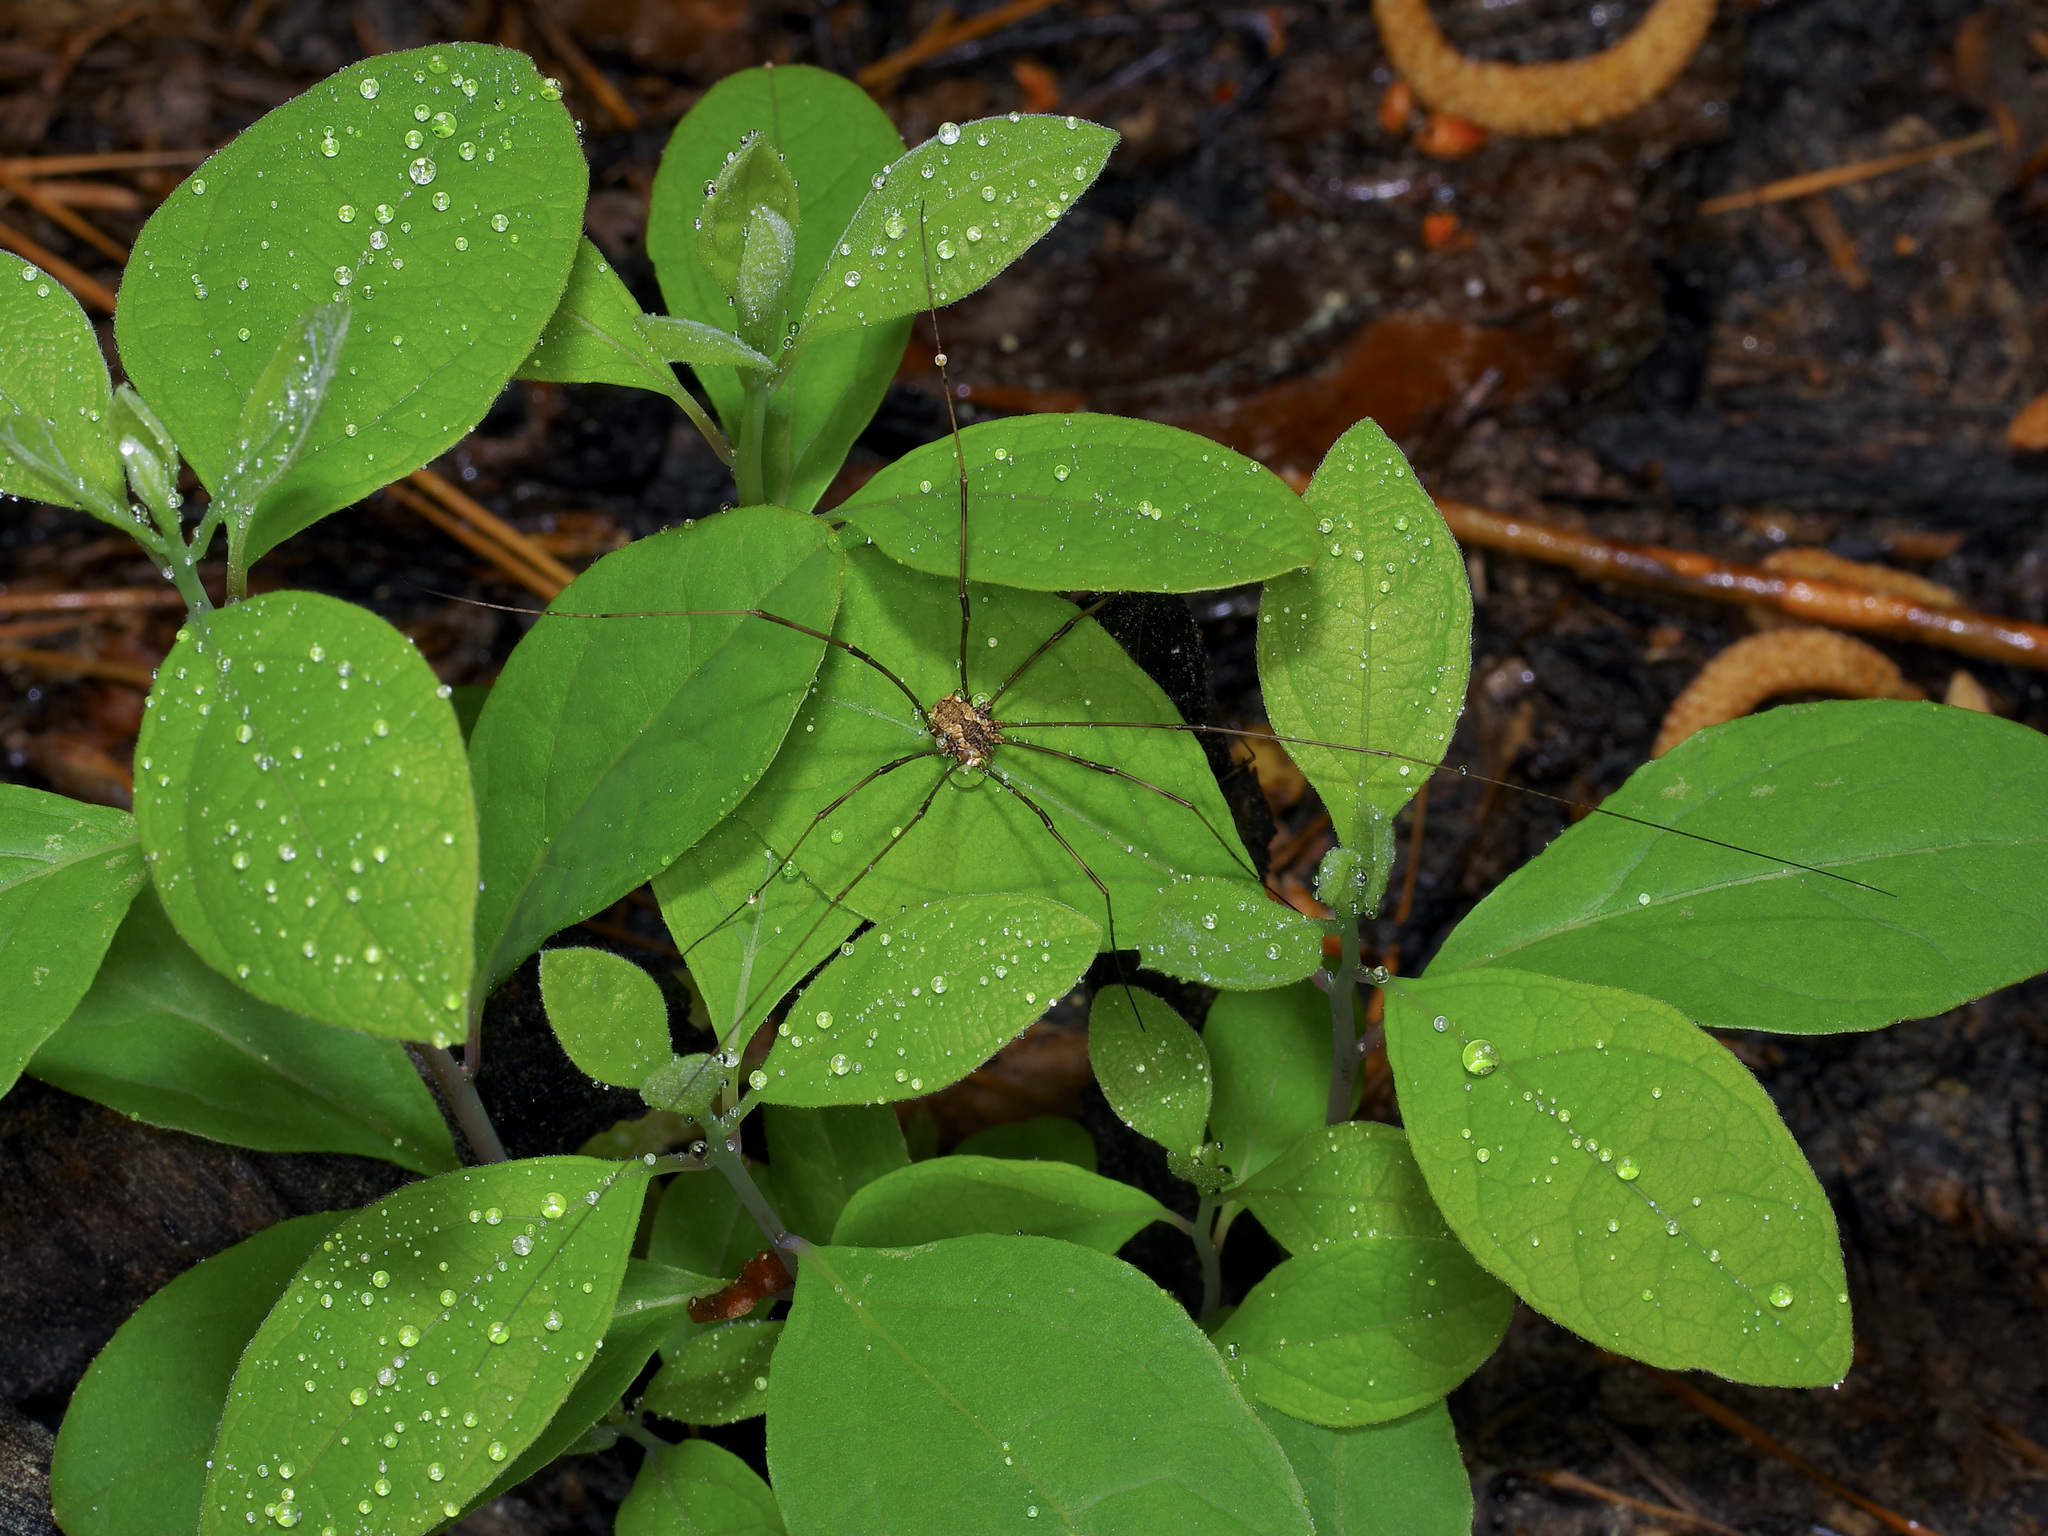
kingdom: Animalia
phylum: Arthropoda
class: Arachnida
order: Opiliones
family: Sclerosomatidae
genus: Leiobunum
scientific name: Leiobunum flavum
